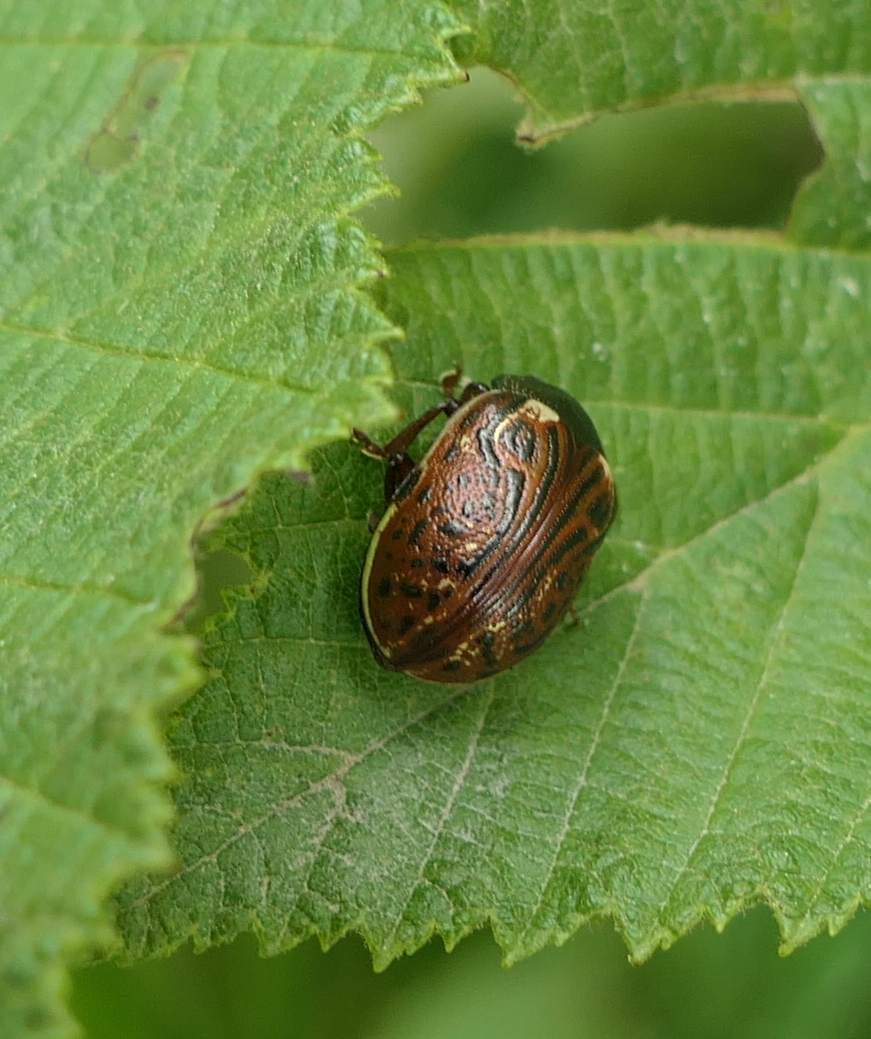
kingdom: Animalia
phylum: Arthropoda
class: Insecta
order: Coleoptera
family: Chrysomelidae
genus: Calligrapha
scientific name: Calligrapha alni
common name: Russet alder leaf beetle
